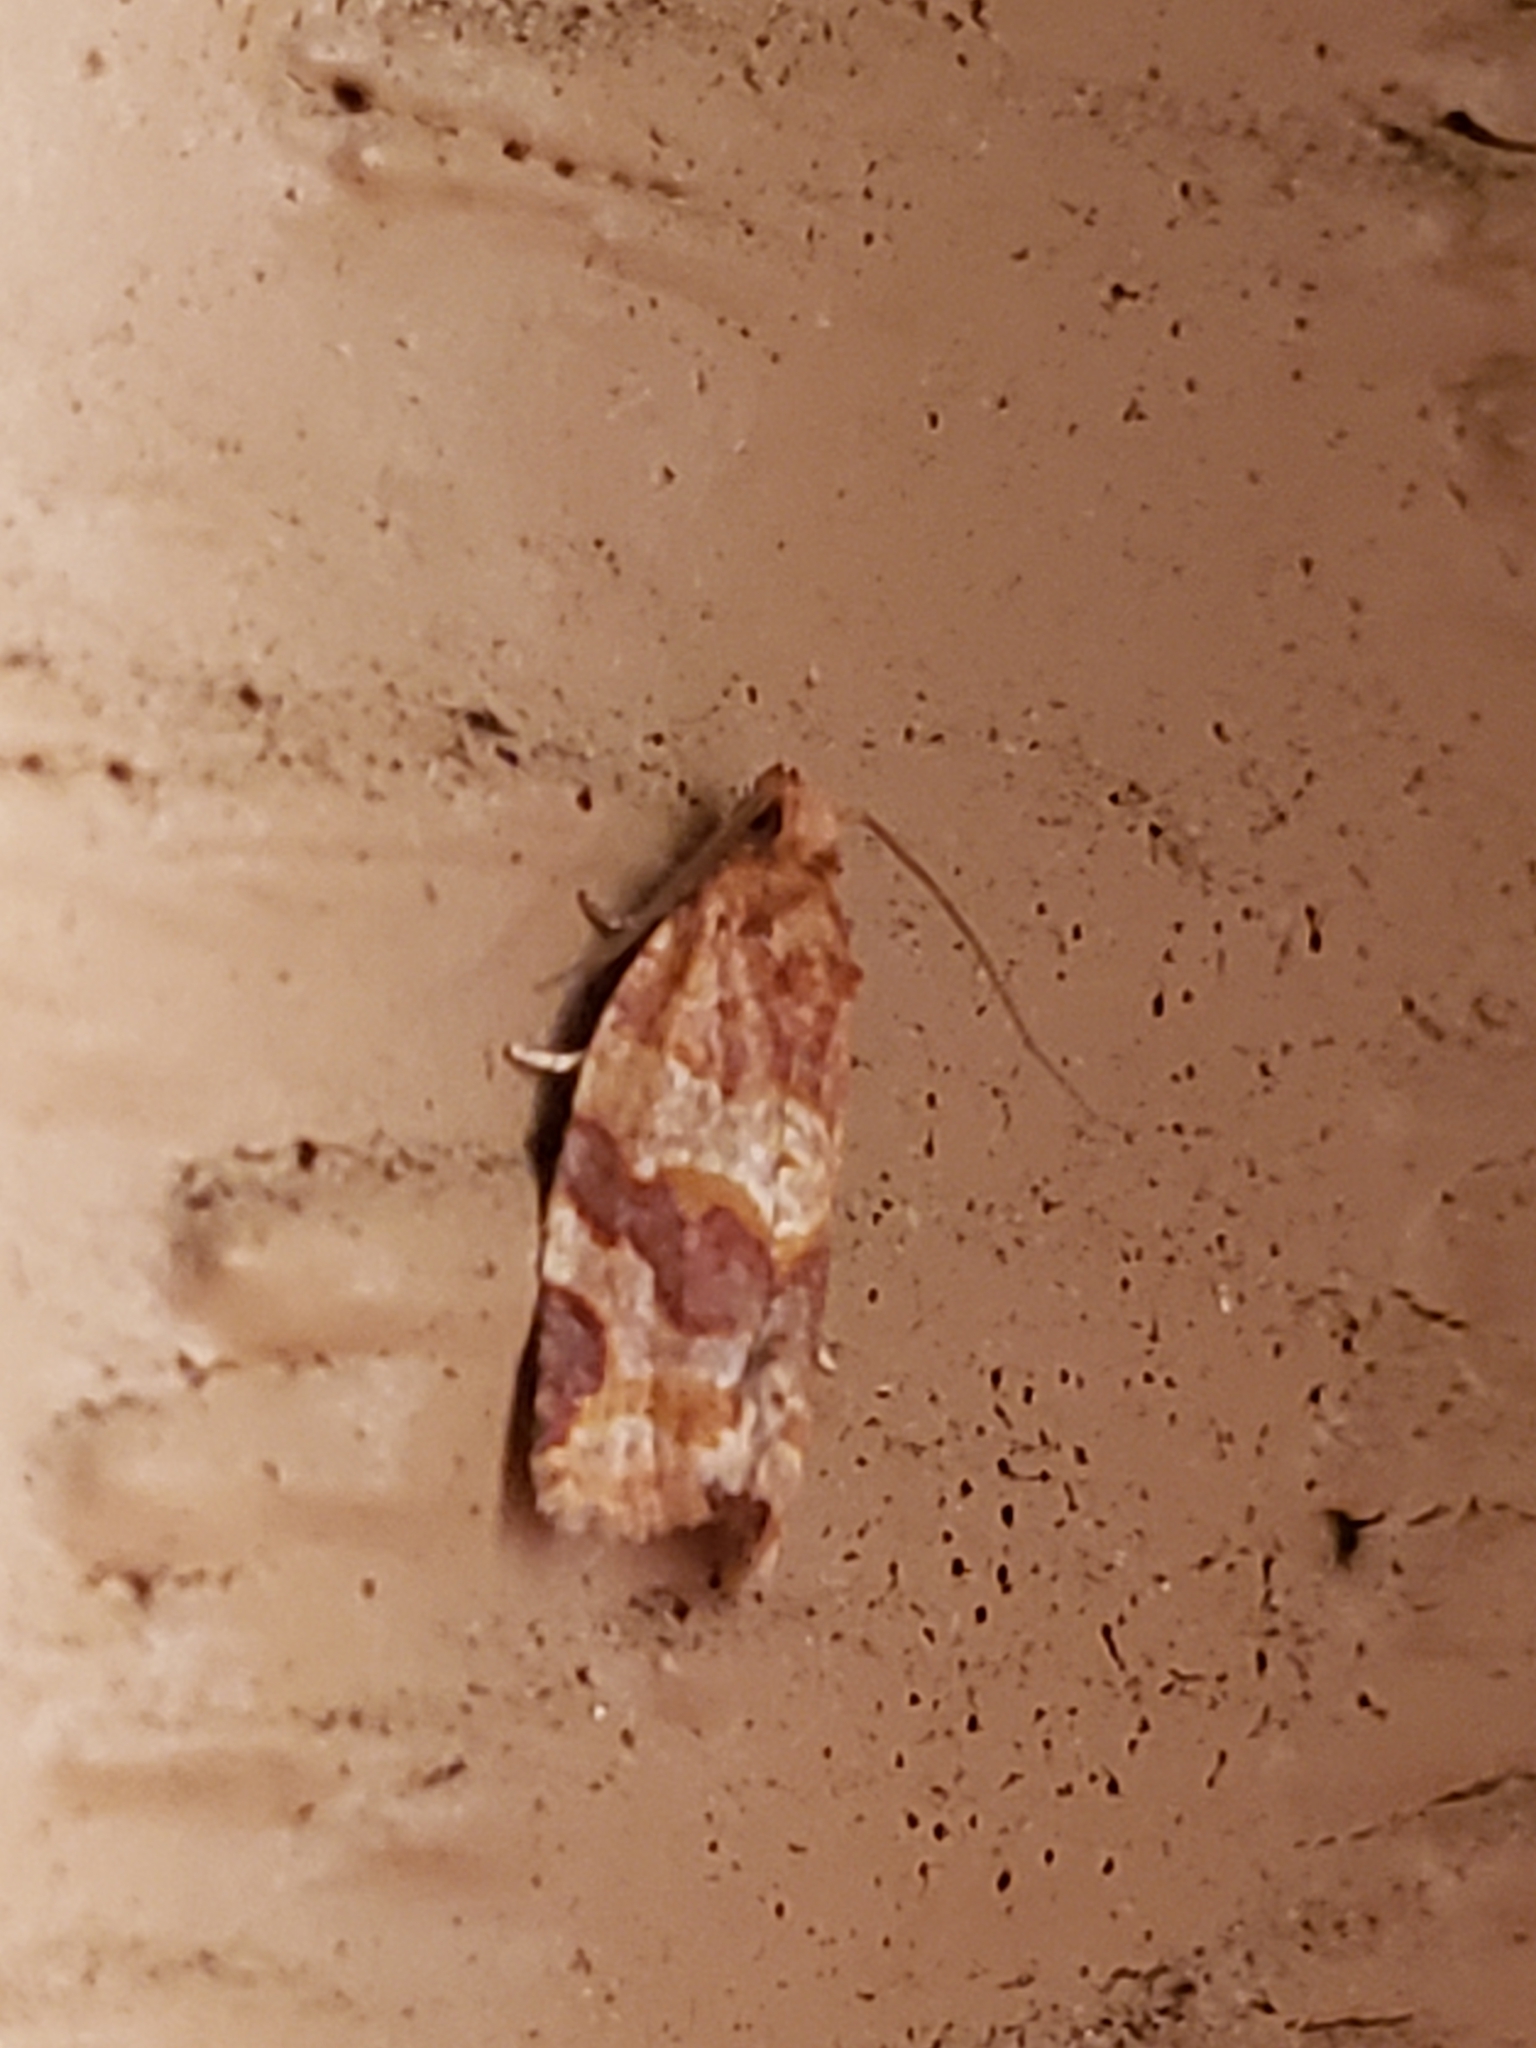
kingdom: Animalia
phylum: Arthropoda
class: Insecta
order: Lepidoptera
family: Tortricidae
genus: Argyrotaenia
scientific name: Argyrotaenia pinatubana
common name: Pine tube moth
